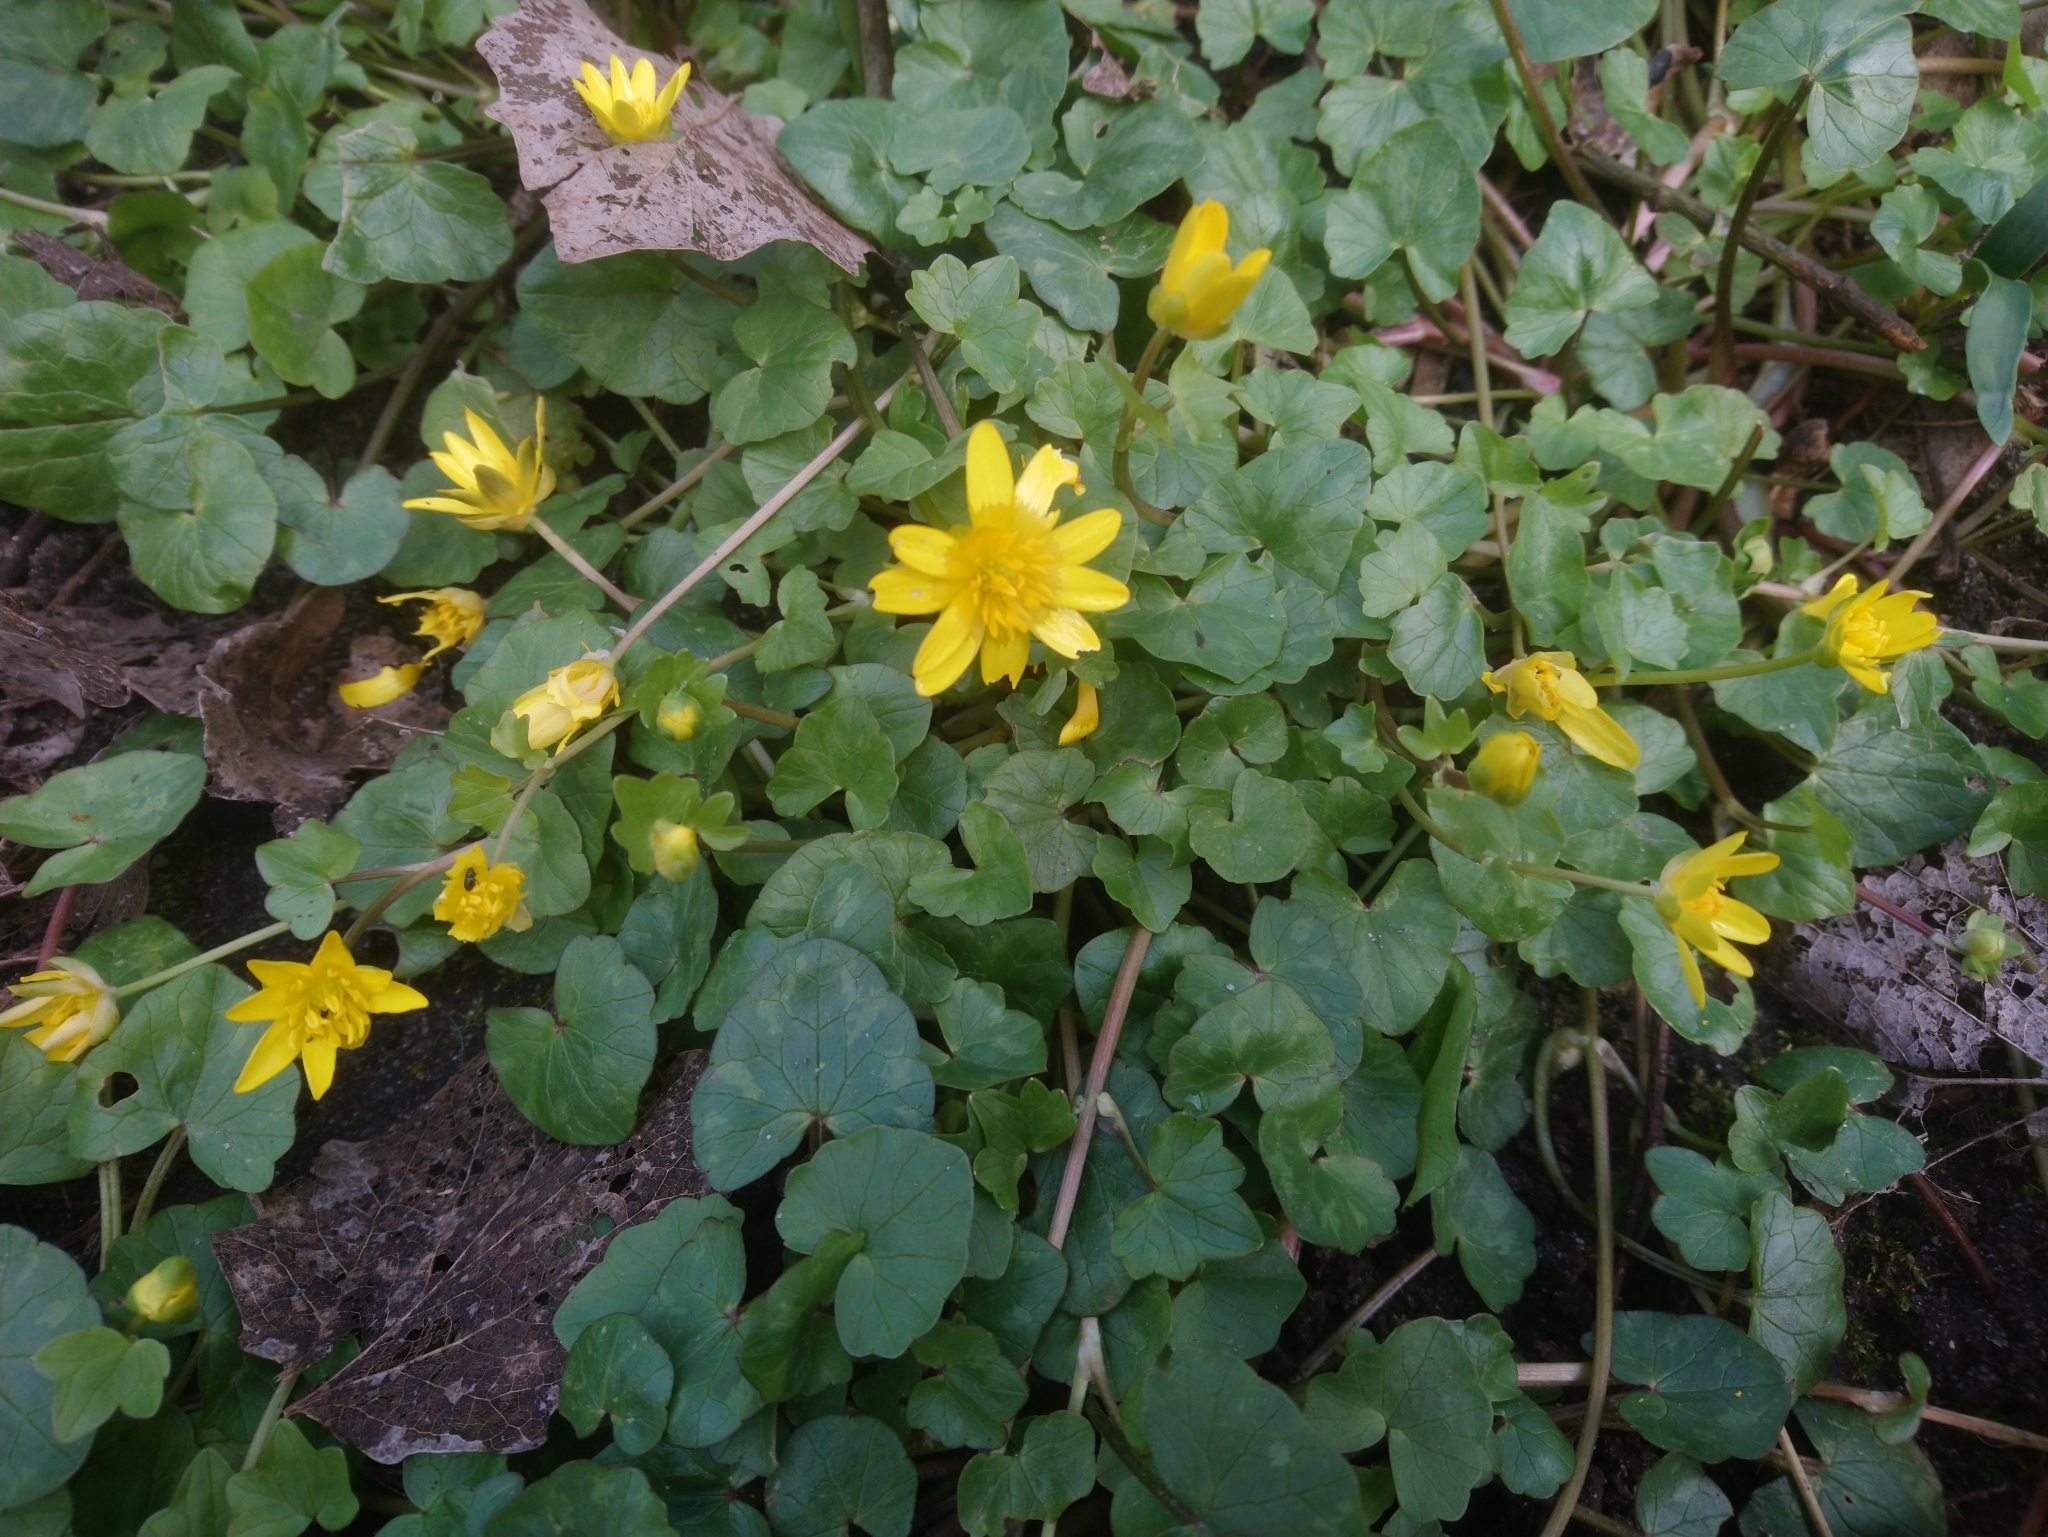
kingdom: Plantae
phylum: Tracheophyta
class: Magnoliopsida
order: Ranunculales
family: Ranunculaceae
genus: Ficaria
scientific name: Ficaria verna
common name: Lesser celandine
